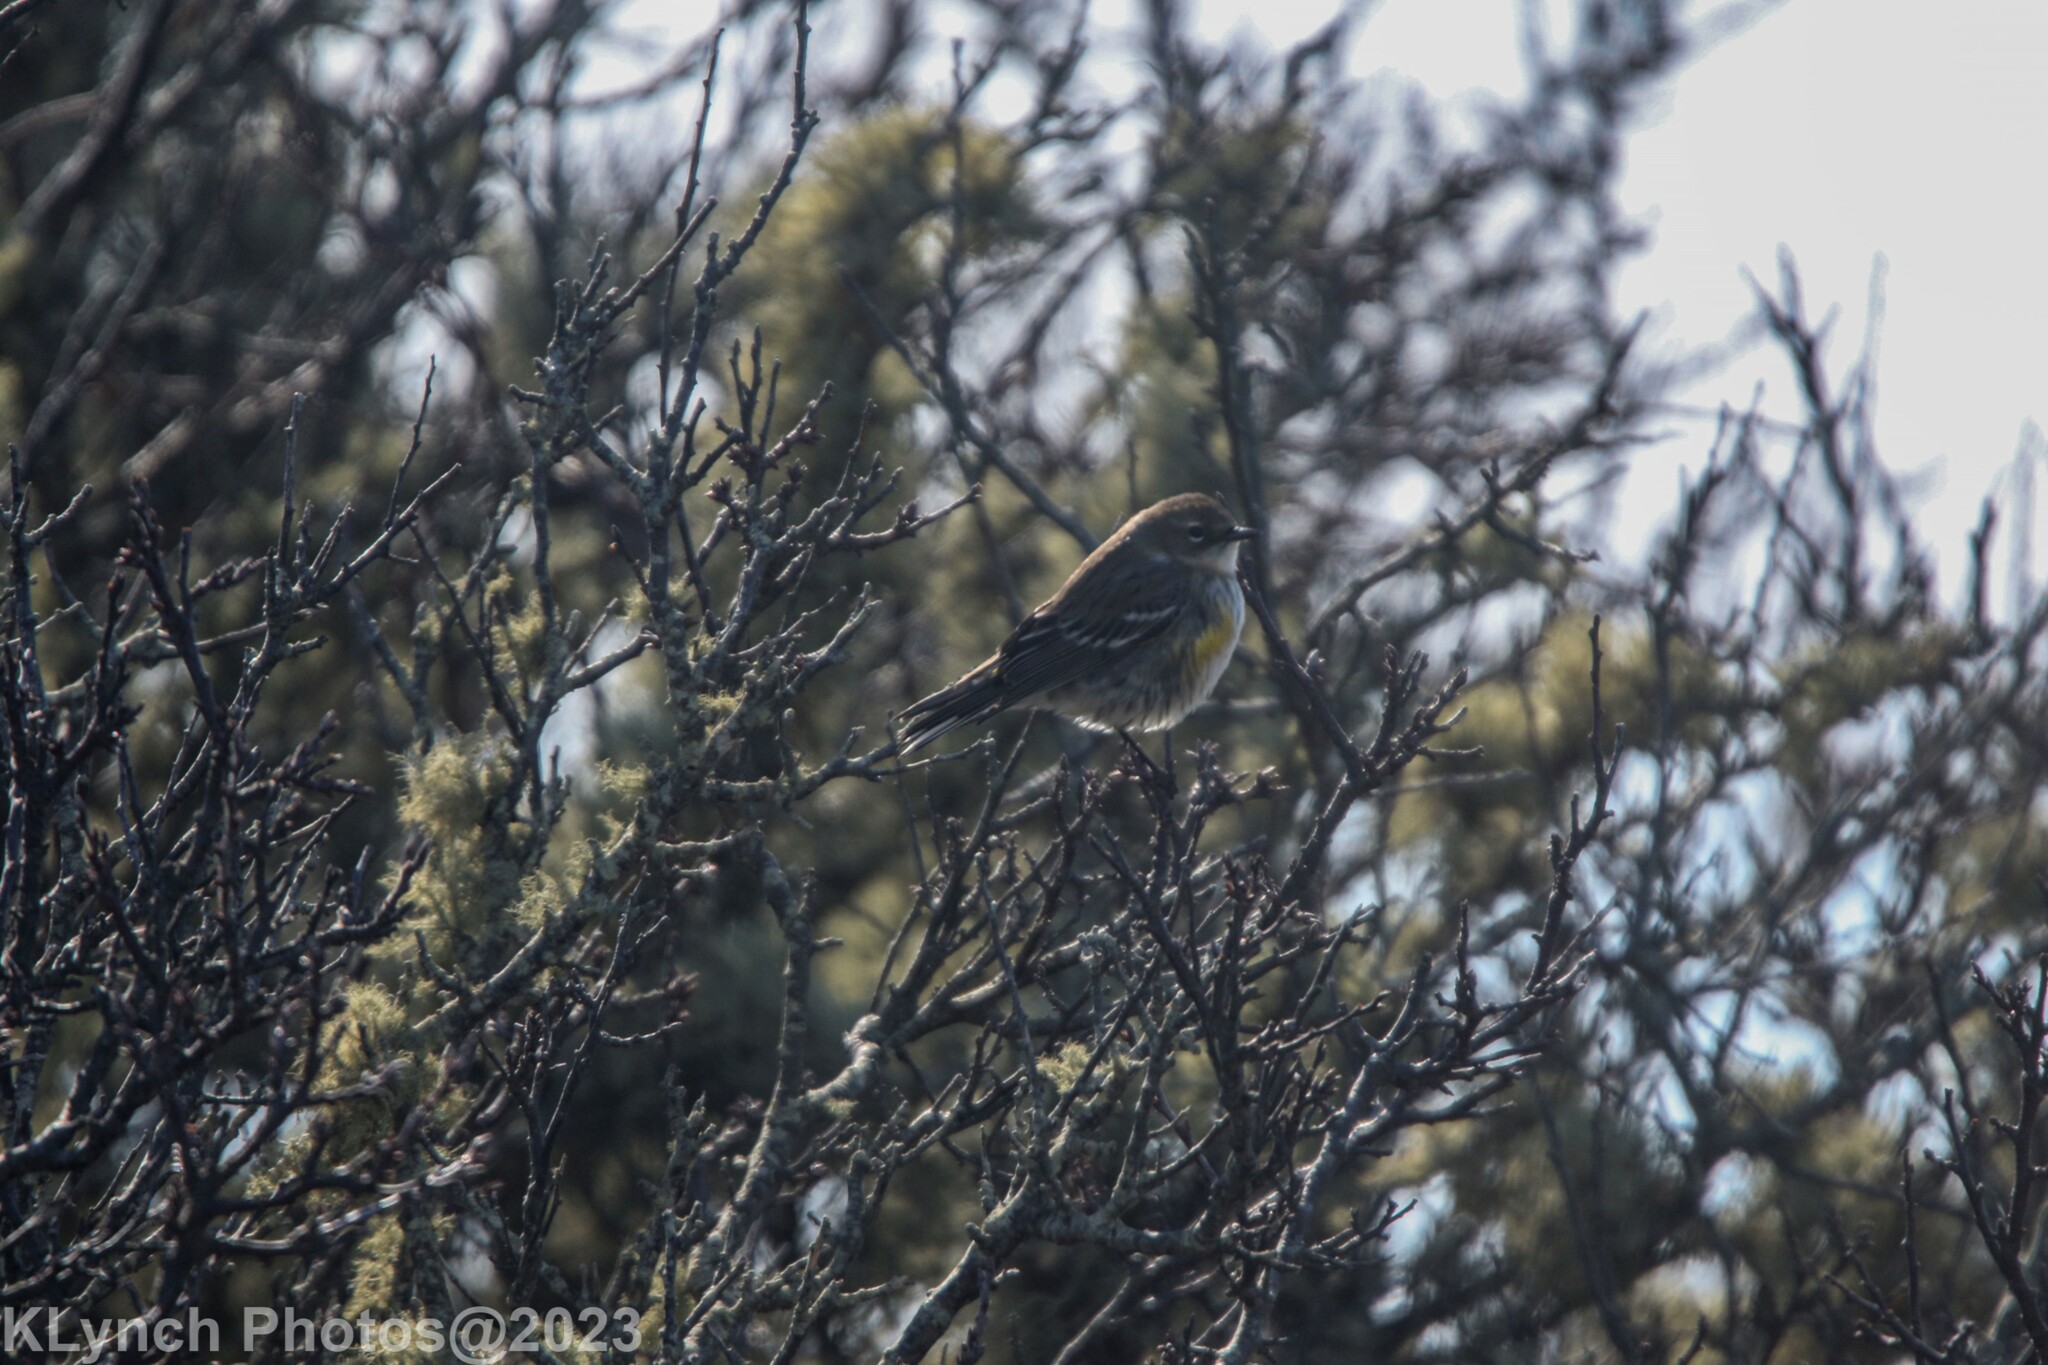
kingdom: Animalia
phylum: Chordata
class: Aves
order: Passeriformes
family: Parulidae
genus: Setophaga
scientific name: Setophaga coronata
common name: Myrtle warbler
